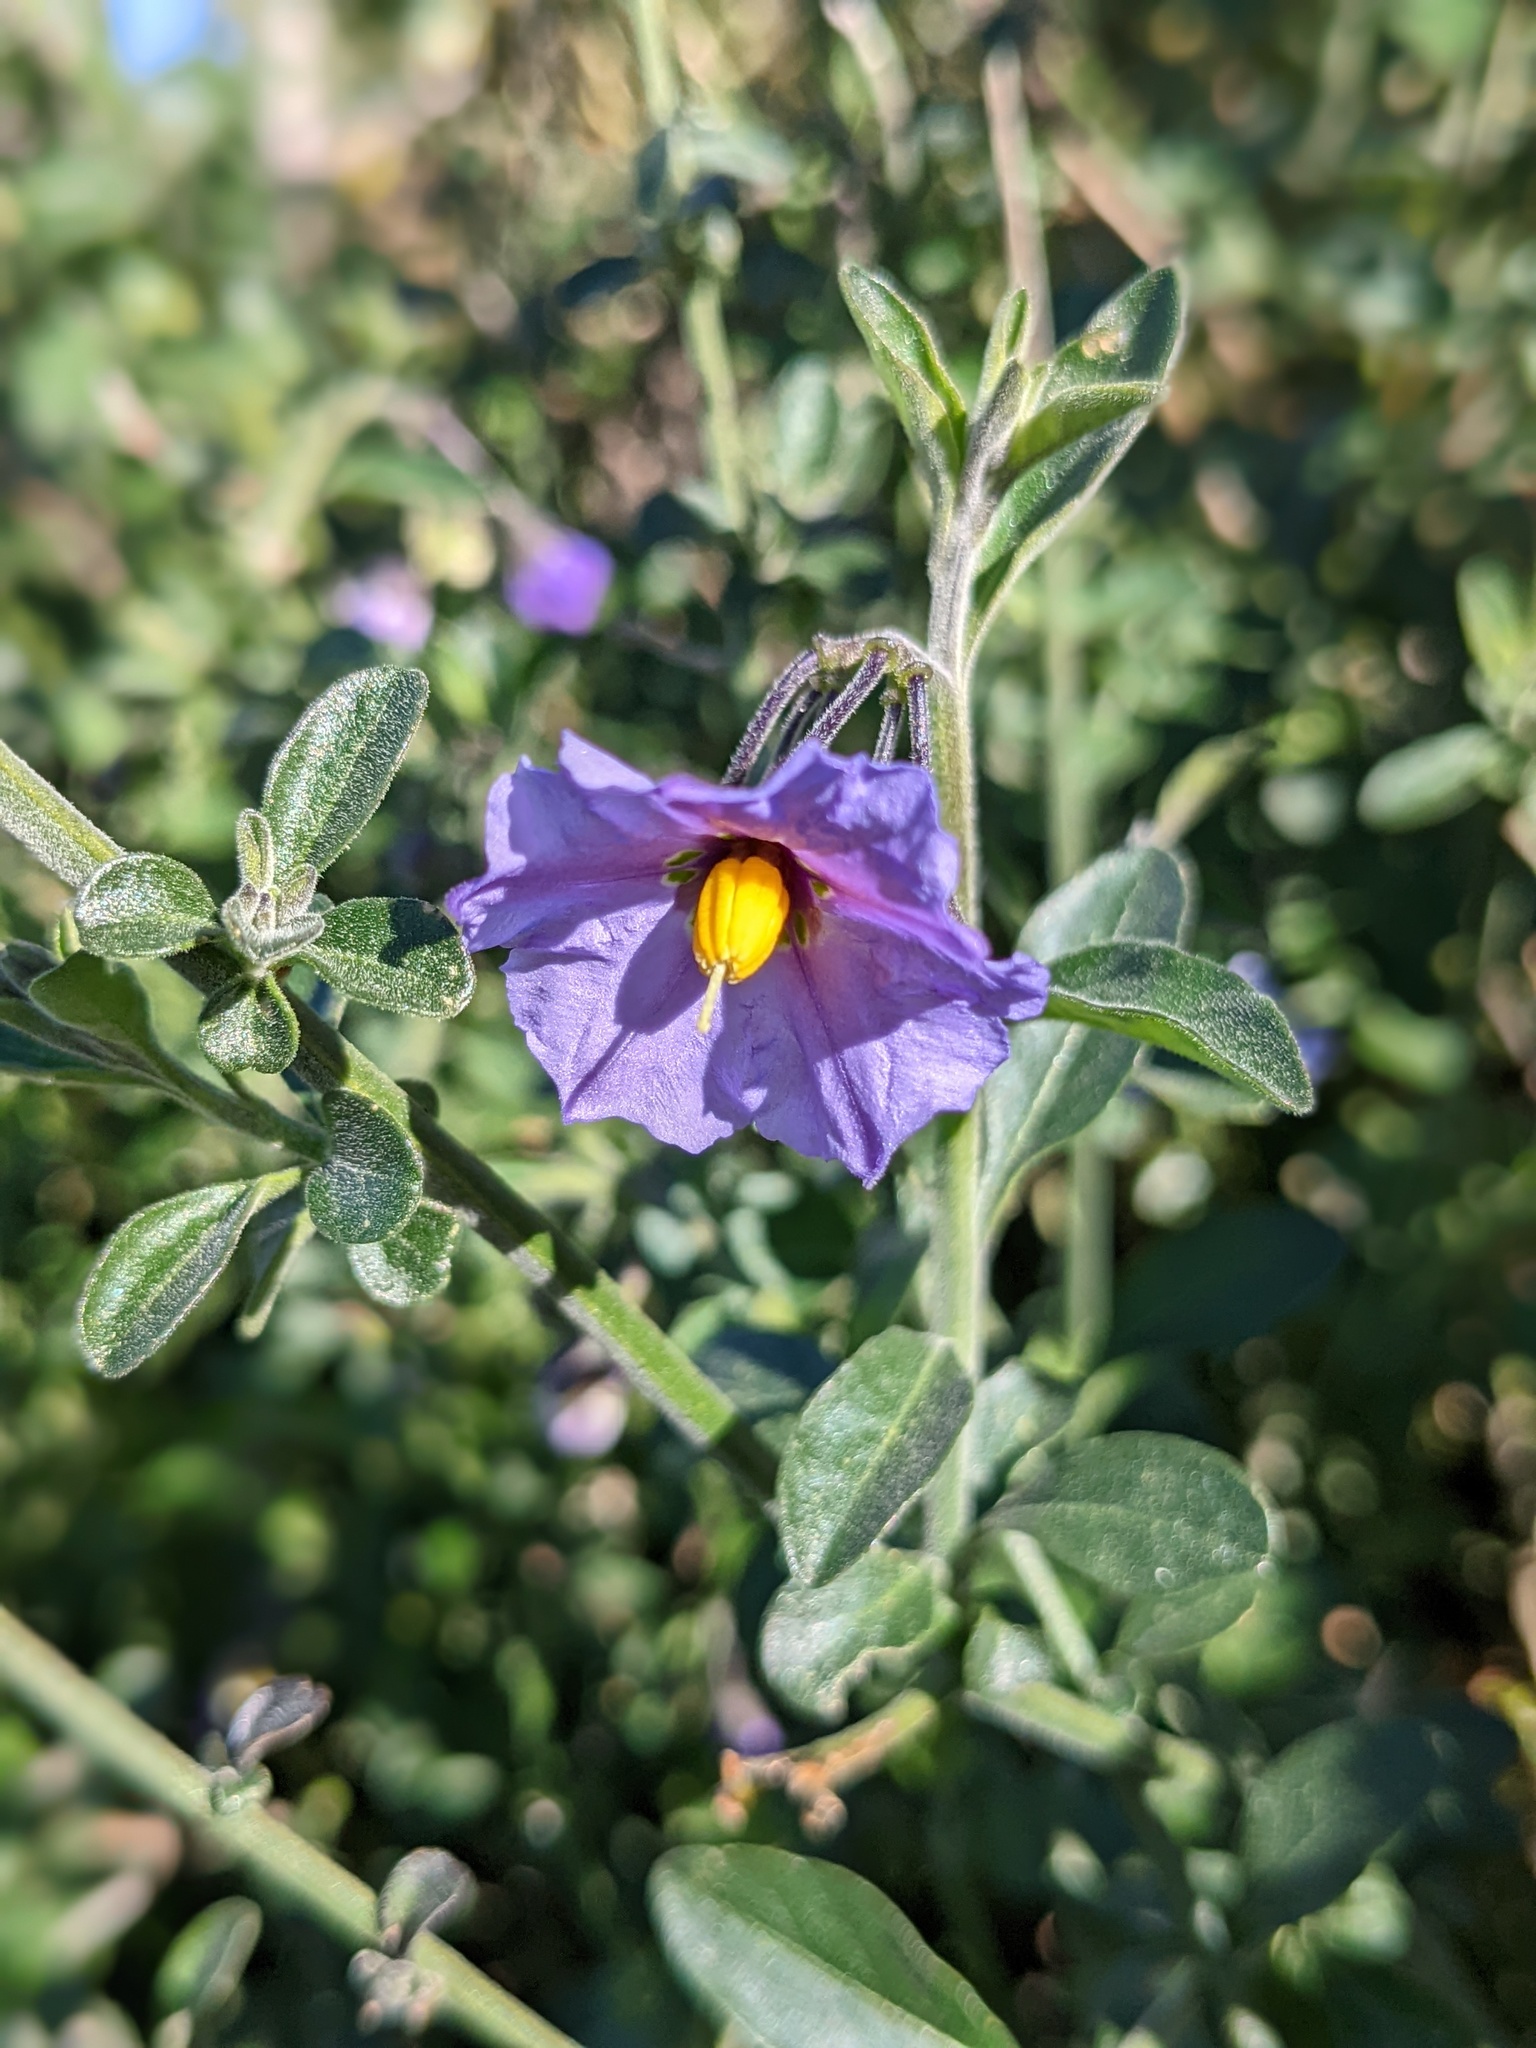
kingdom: Plantae
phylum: Tracheophyta
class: Magnoliopsida
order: Solanales
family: Solanaceae
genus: Solanum
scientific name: Solanum umbelliferum
